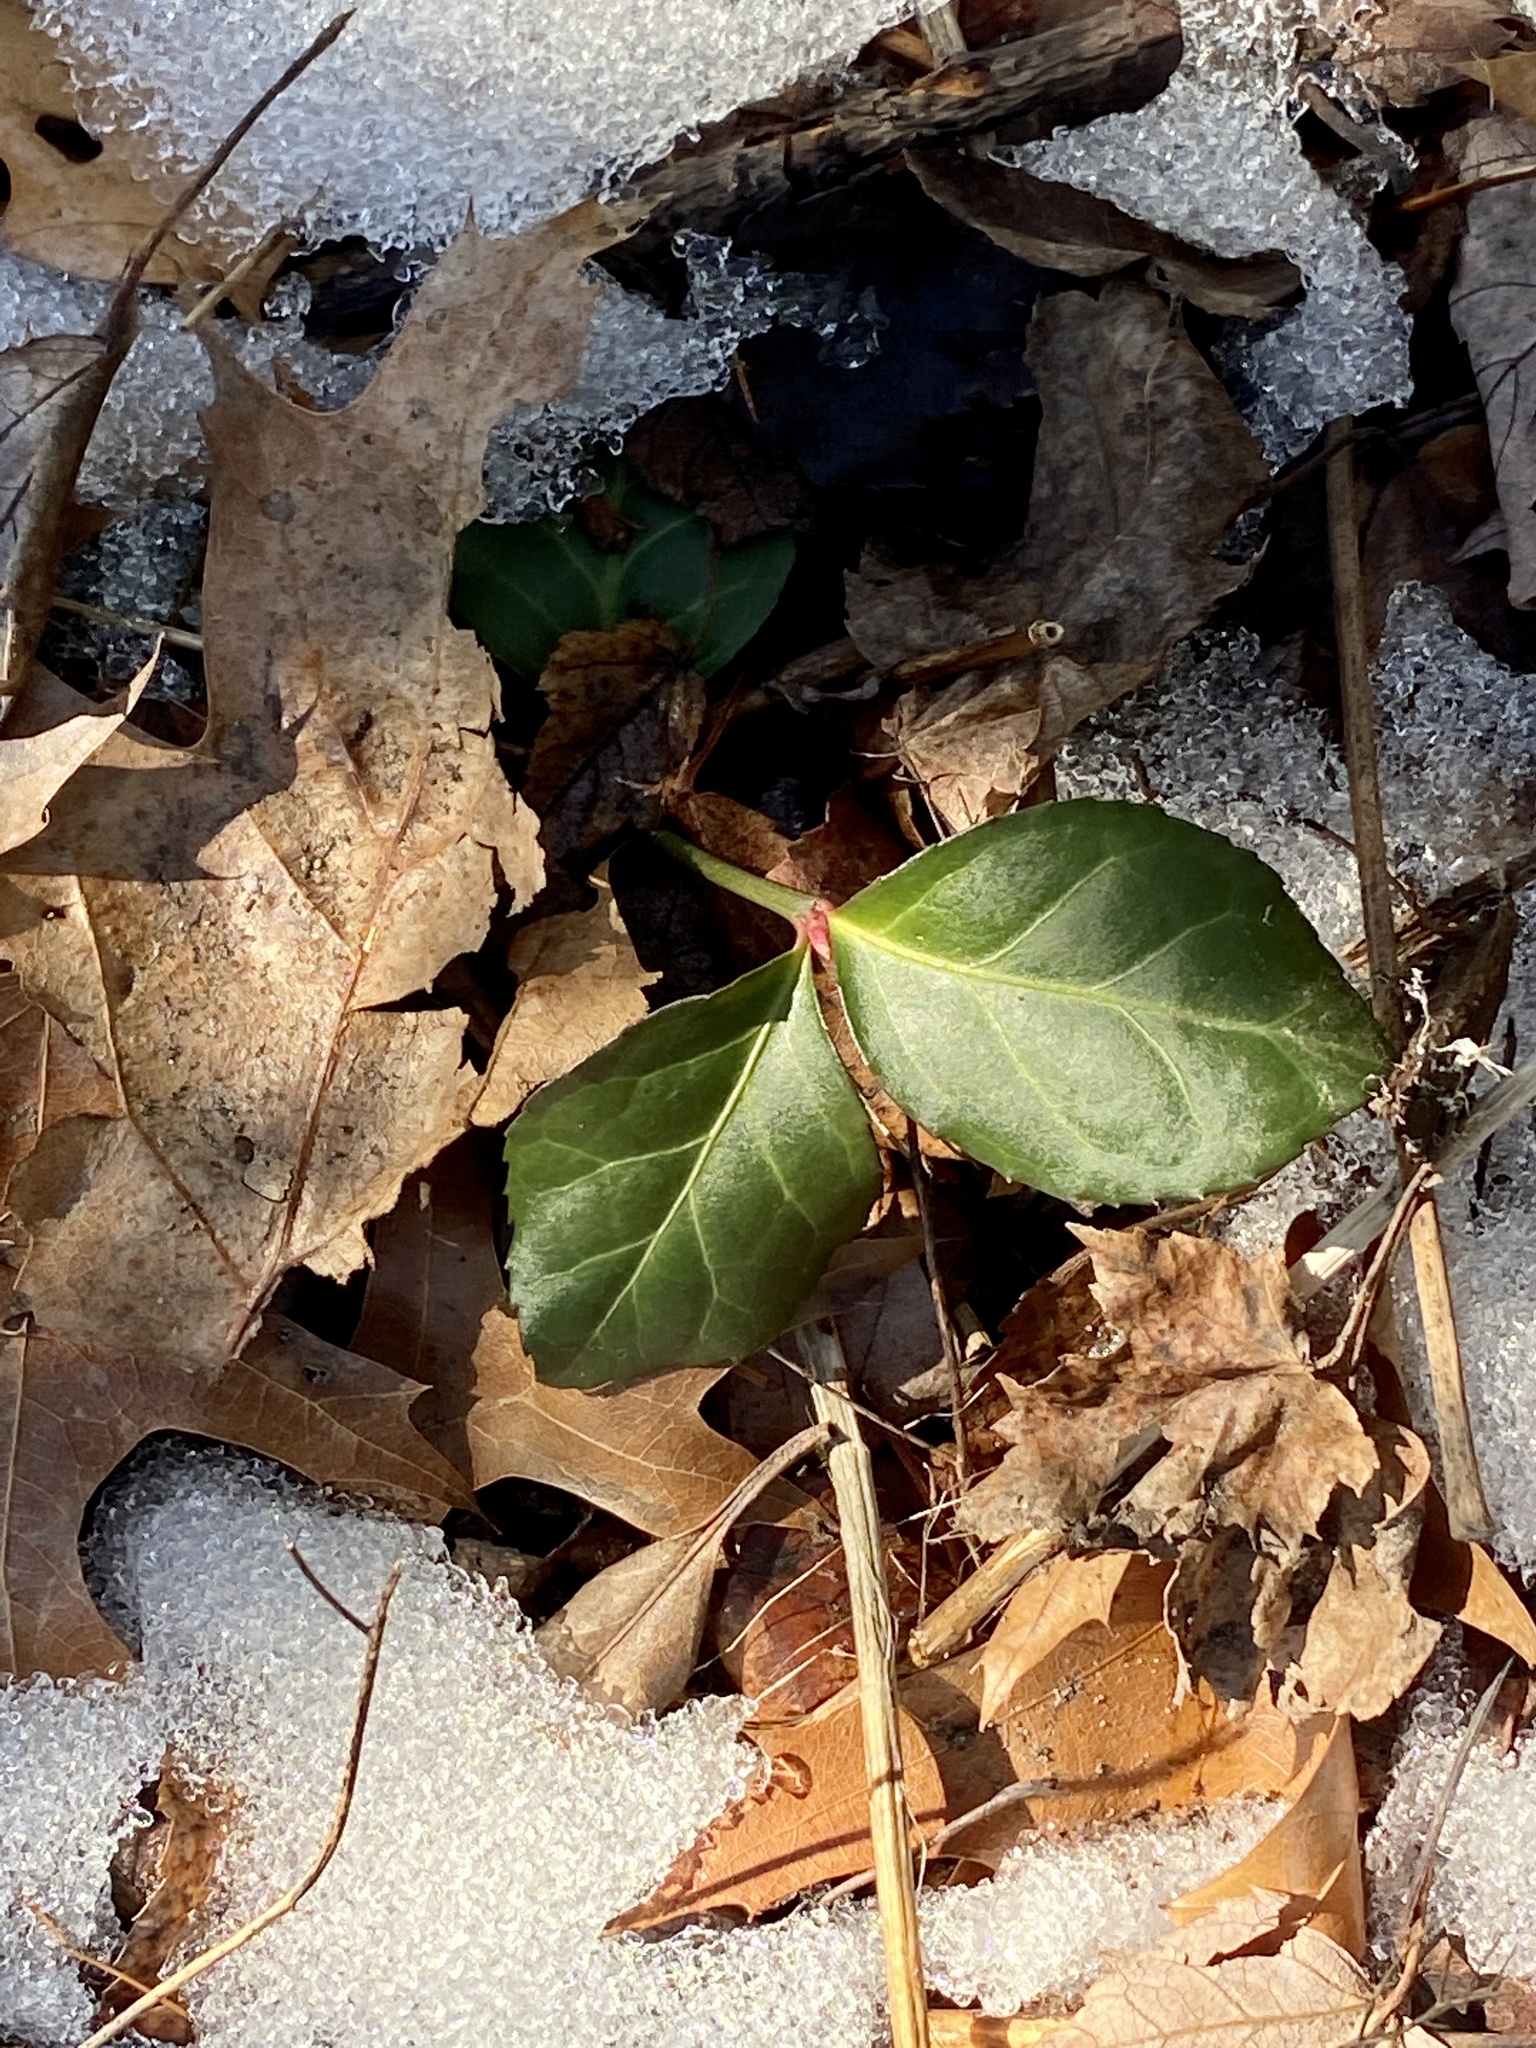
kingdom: Plantae
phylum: Tracheophyta
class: Magnoliopsida
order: Celastrales
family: Celastraceae
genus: Euonymus
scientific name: Euonymus fortunei
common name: Climbing euonymus
